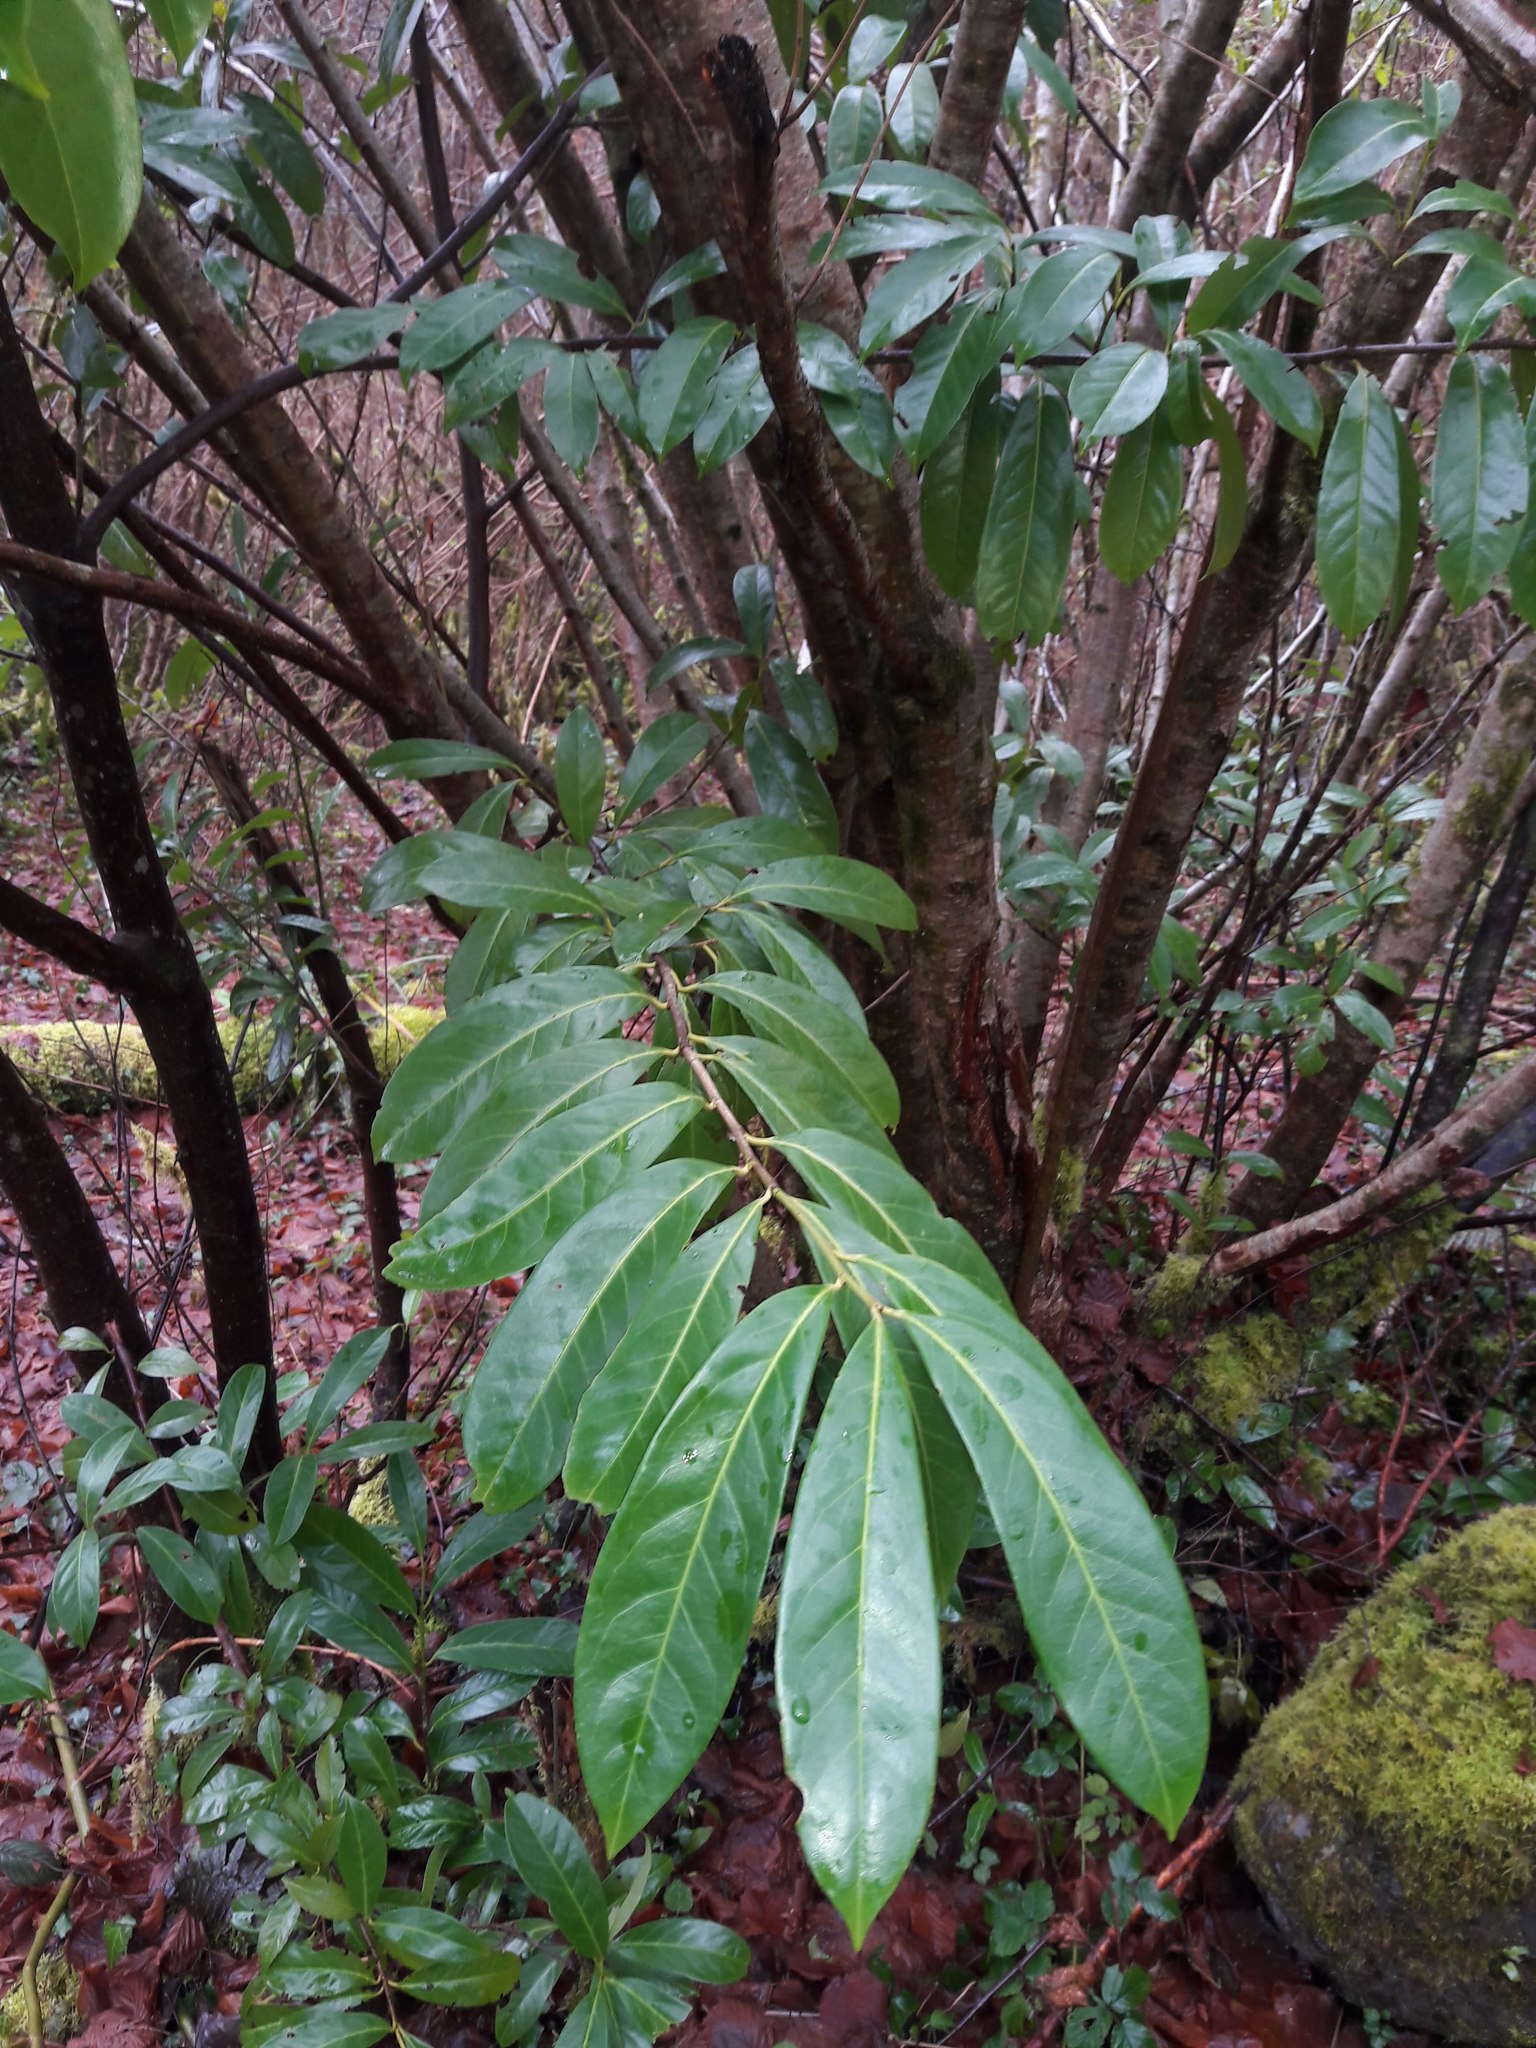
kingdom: Plantae
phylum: Tracheophyta
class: Magnoliopsida
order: Rosales
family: Rosaceae
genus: Prunus
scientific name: Prunus laurocerasus
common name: Cherry laurel
